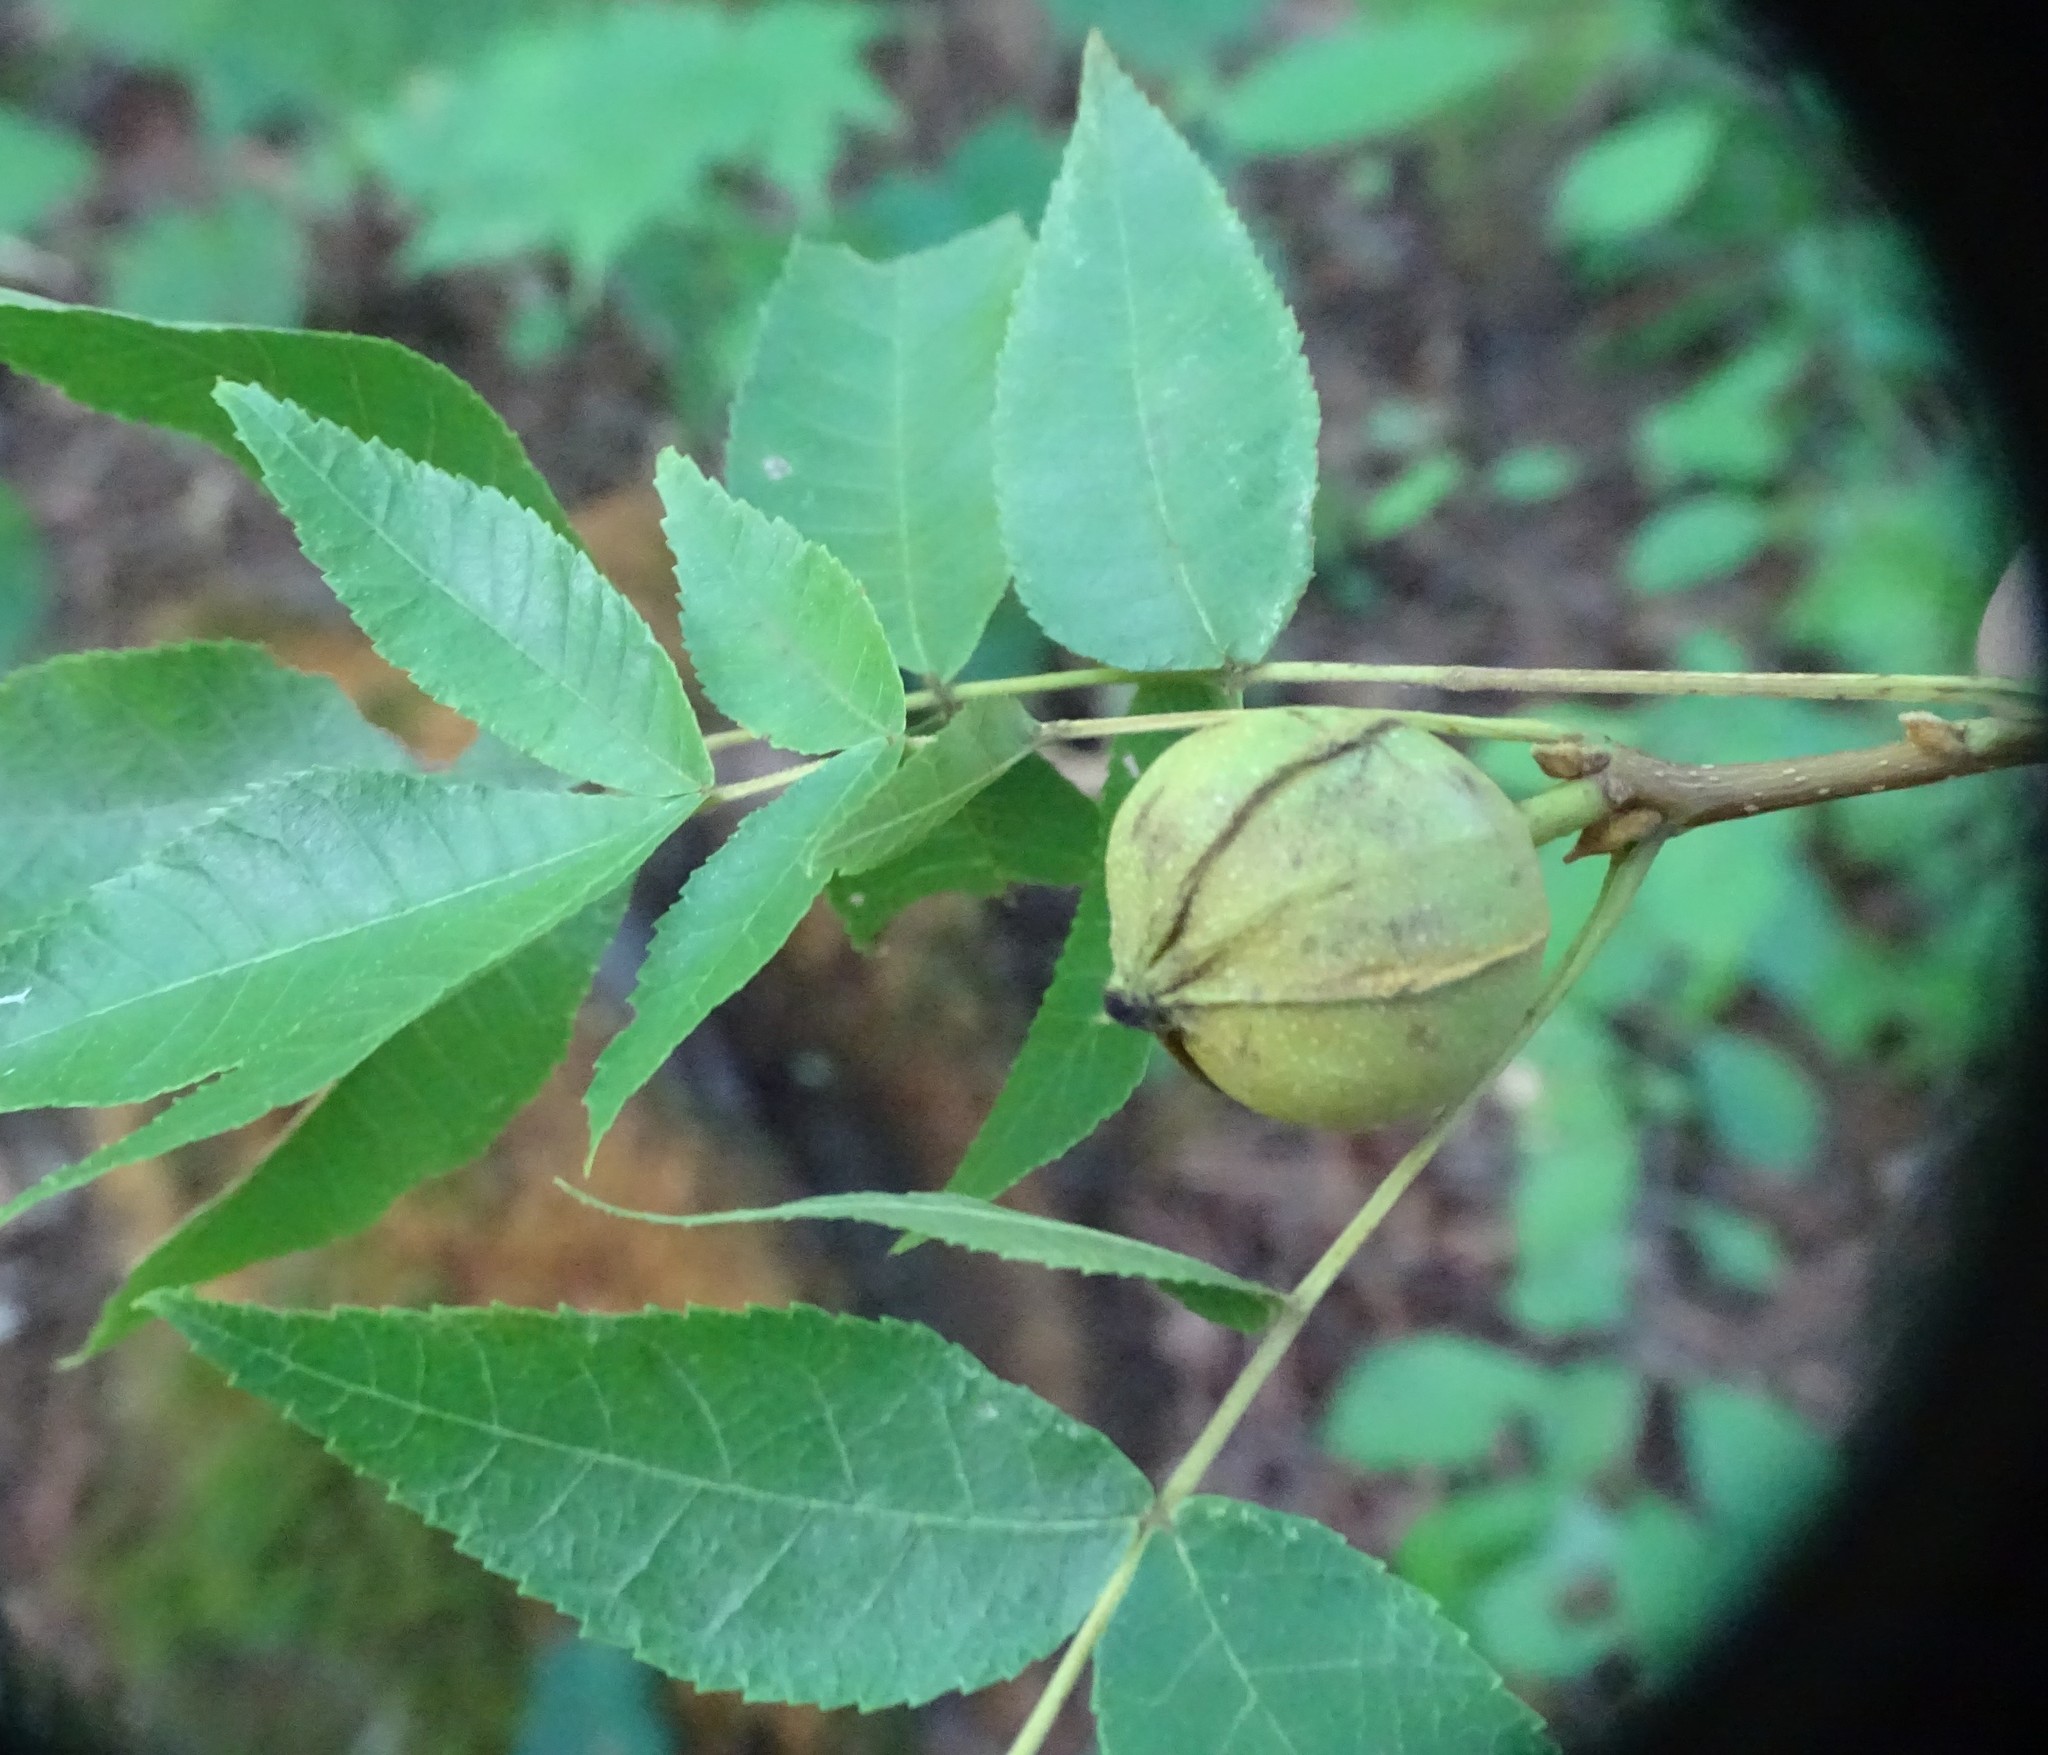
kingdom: Plantae
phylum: Tracheophyta
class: Magnoliopsida
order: Fagales
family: Juglandaceae
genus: Carya
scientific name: Carya cordiformis
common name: Bitternut hickory
